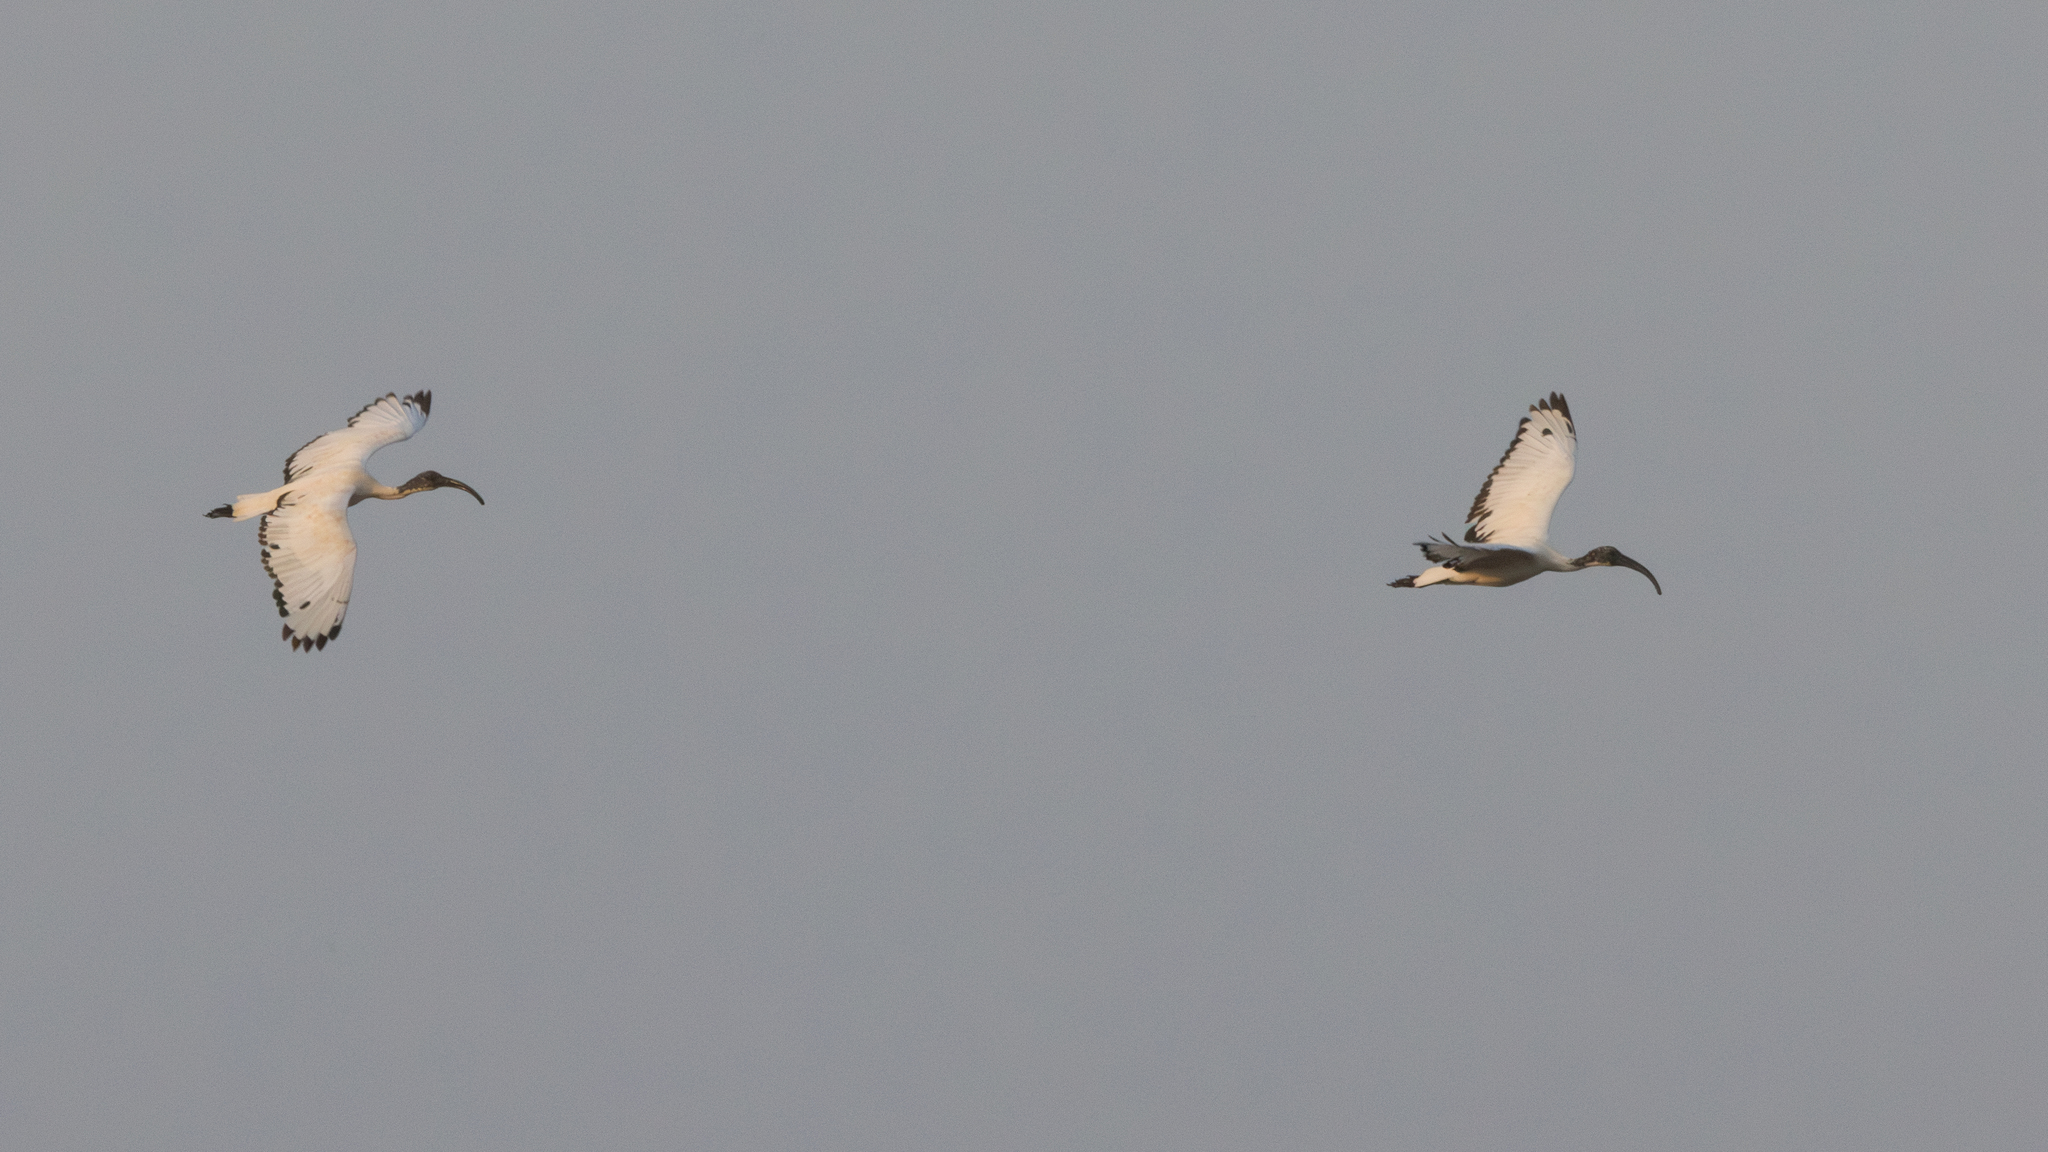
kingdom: Animalia
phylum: Chordata
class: Aves
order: Pelecaniformes
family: Threskiornithidae
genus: Threskiornis
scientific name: Threskiornis aethiopicus
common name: Sacred ibis
